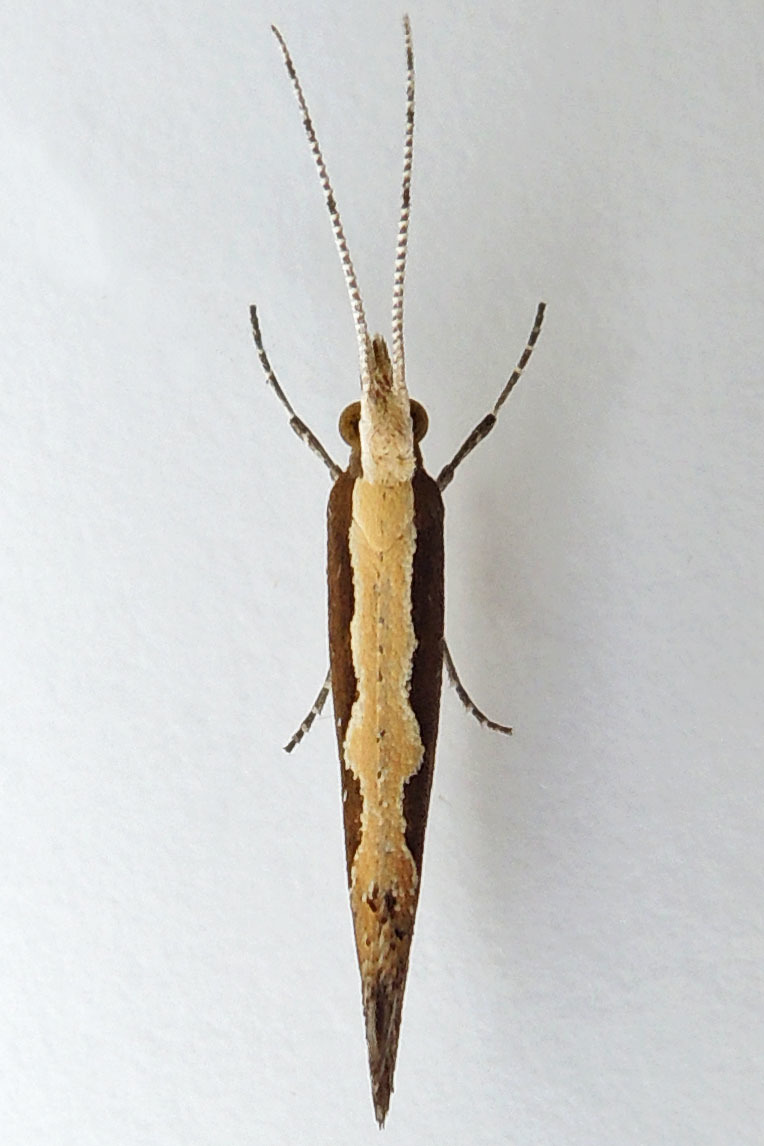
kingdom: Animalia
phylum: Arthropoda
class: Insecta
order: Lepidoptera
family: Plutellidae
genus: Plutella
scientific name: Plutella xylostella
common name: Diamond-back moth
